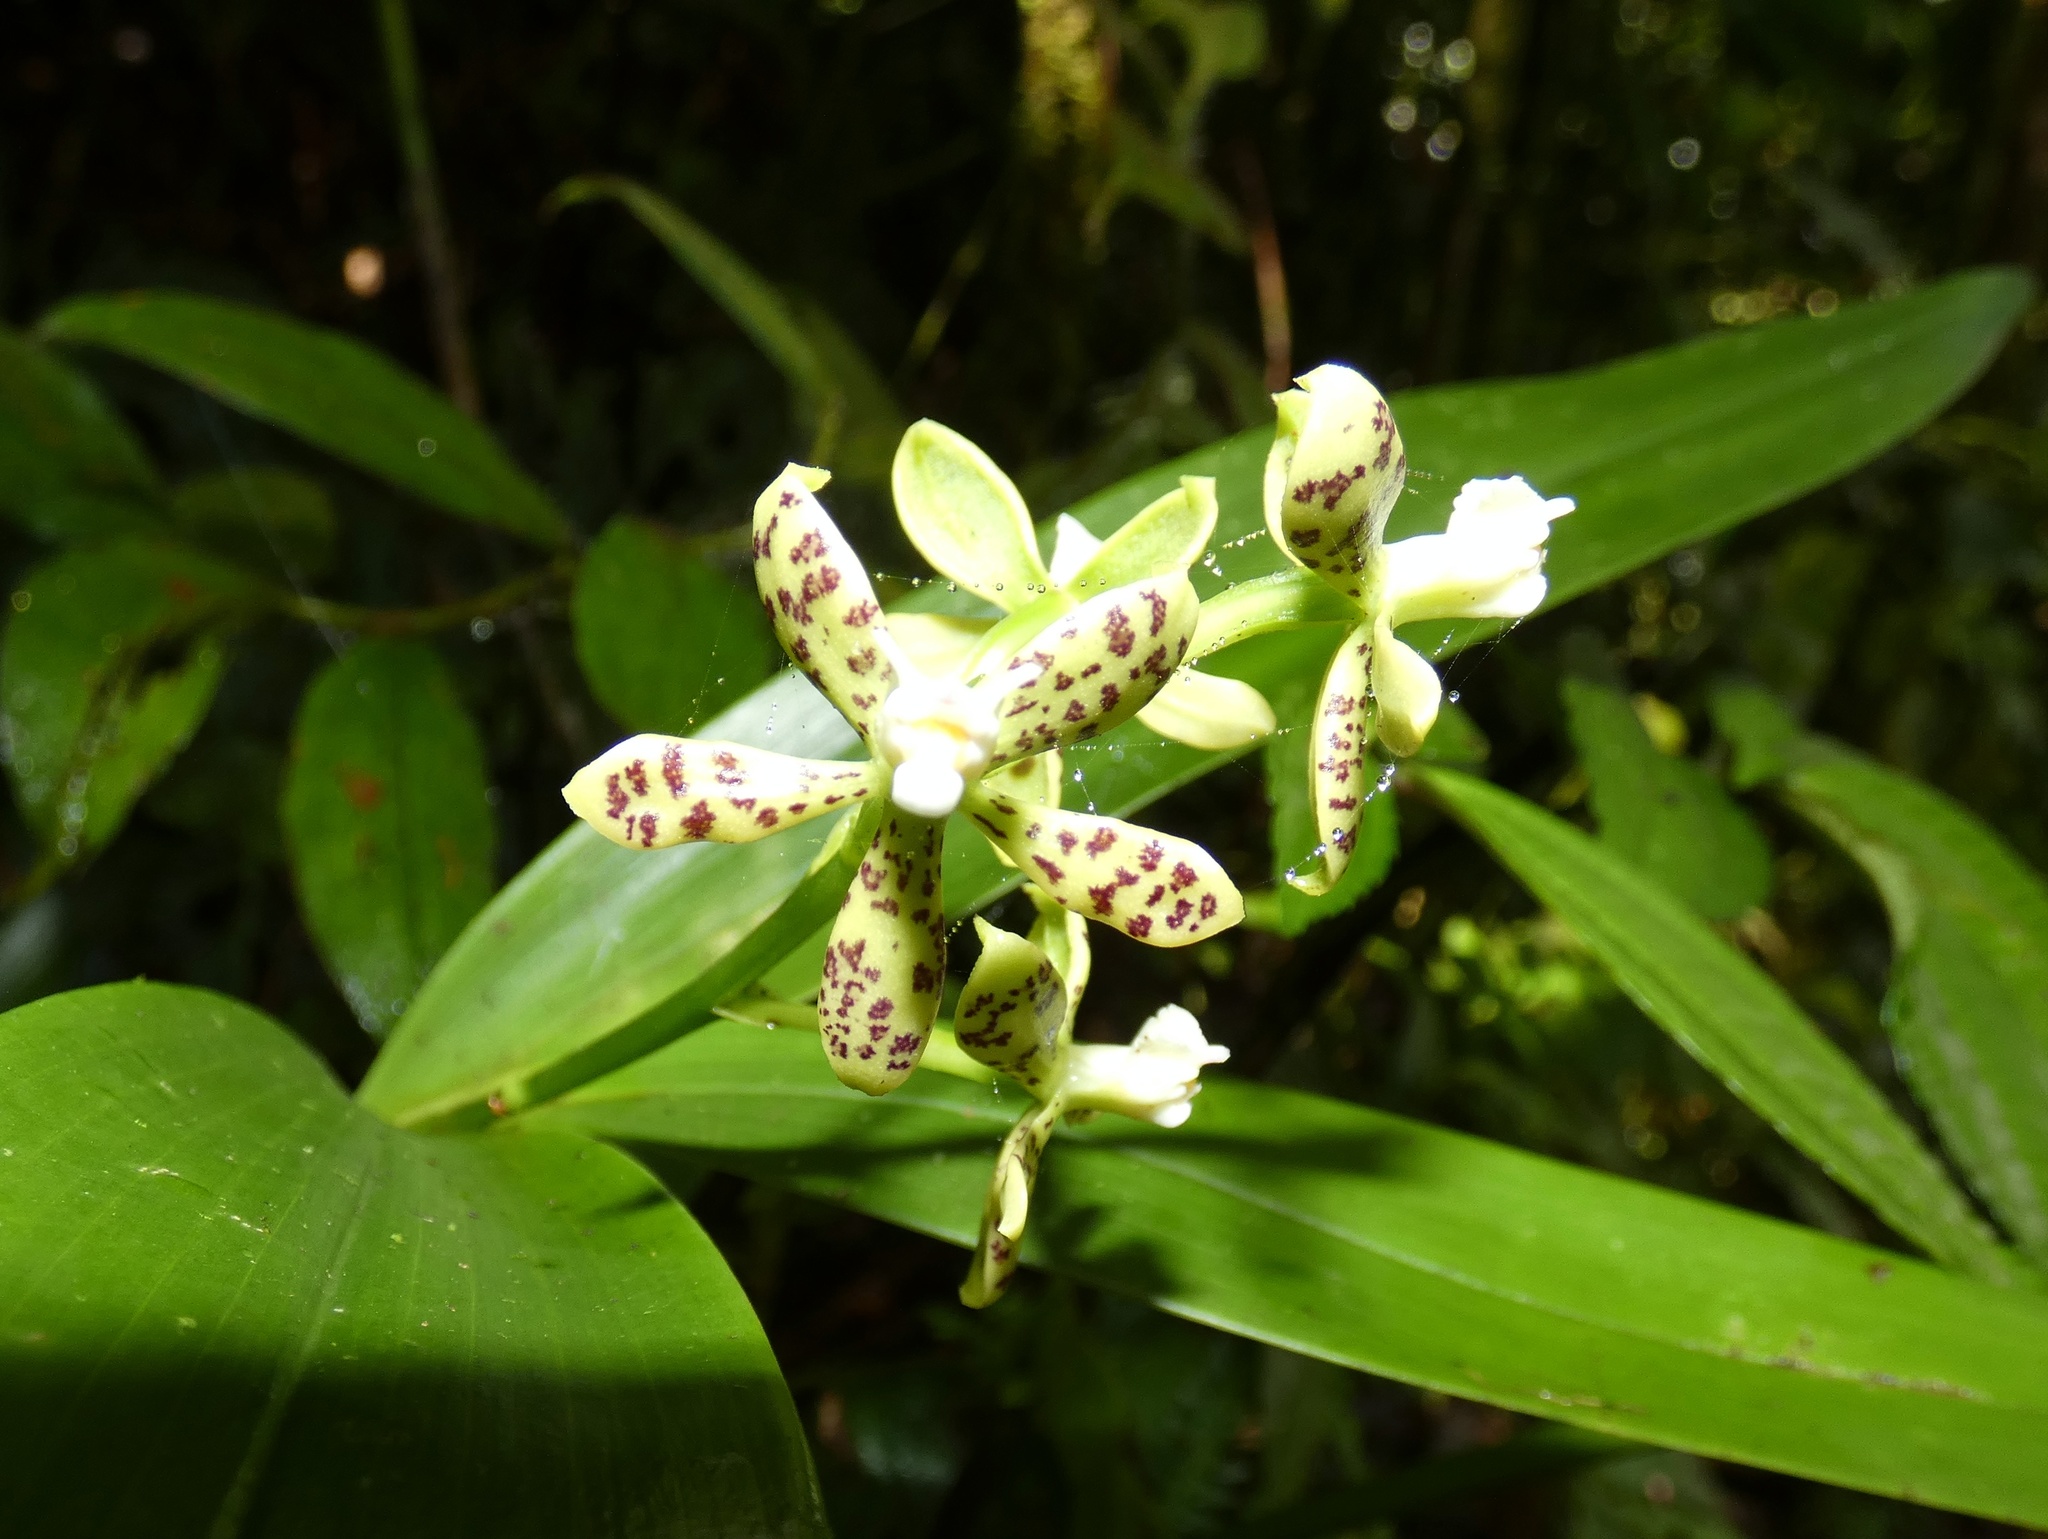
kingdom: Plantae
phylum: Tracheophyta
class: Liliopsida
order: Asparagales
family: Orchidaceae
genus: Prosthechea
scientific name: Prosthechea crassilabia
